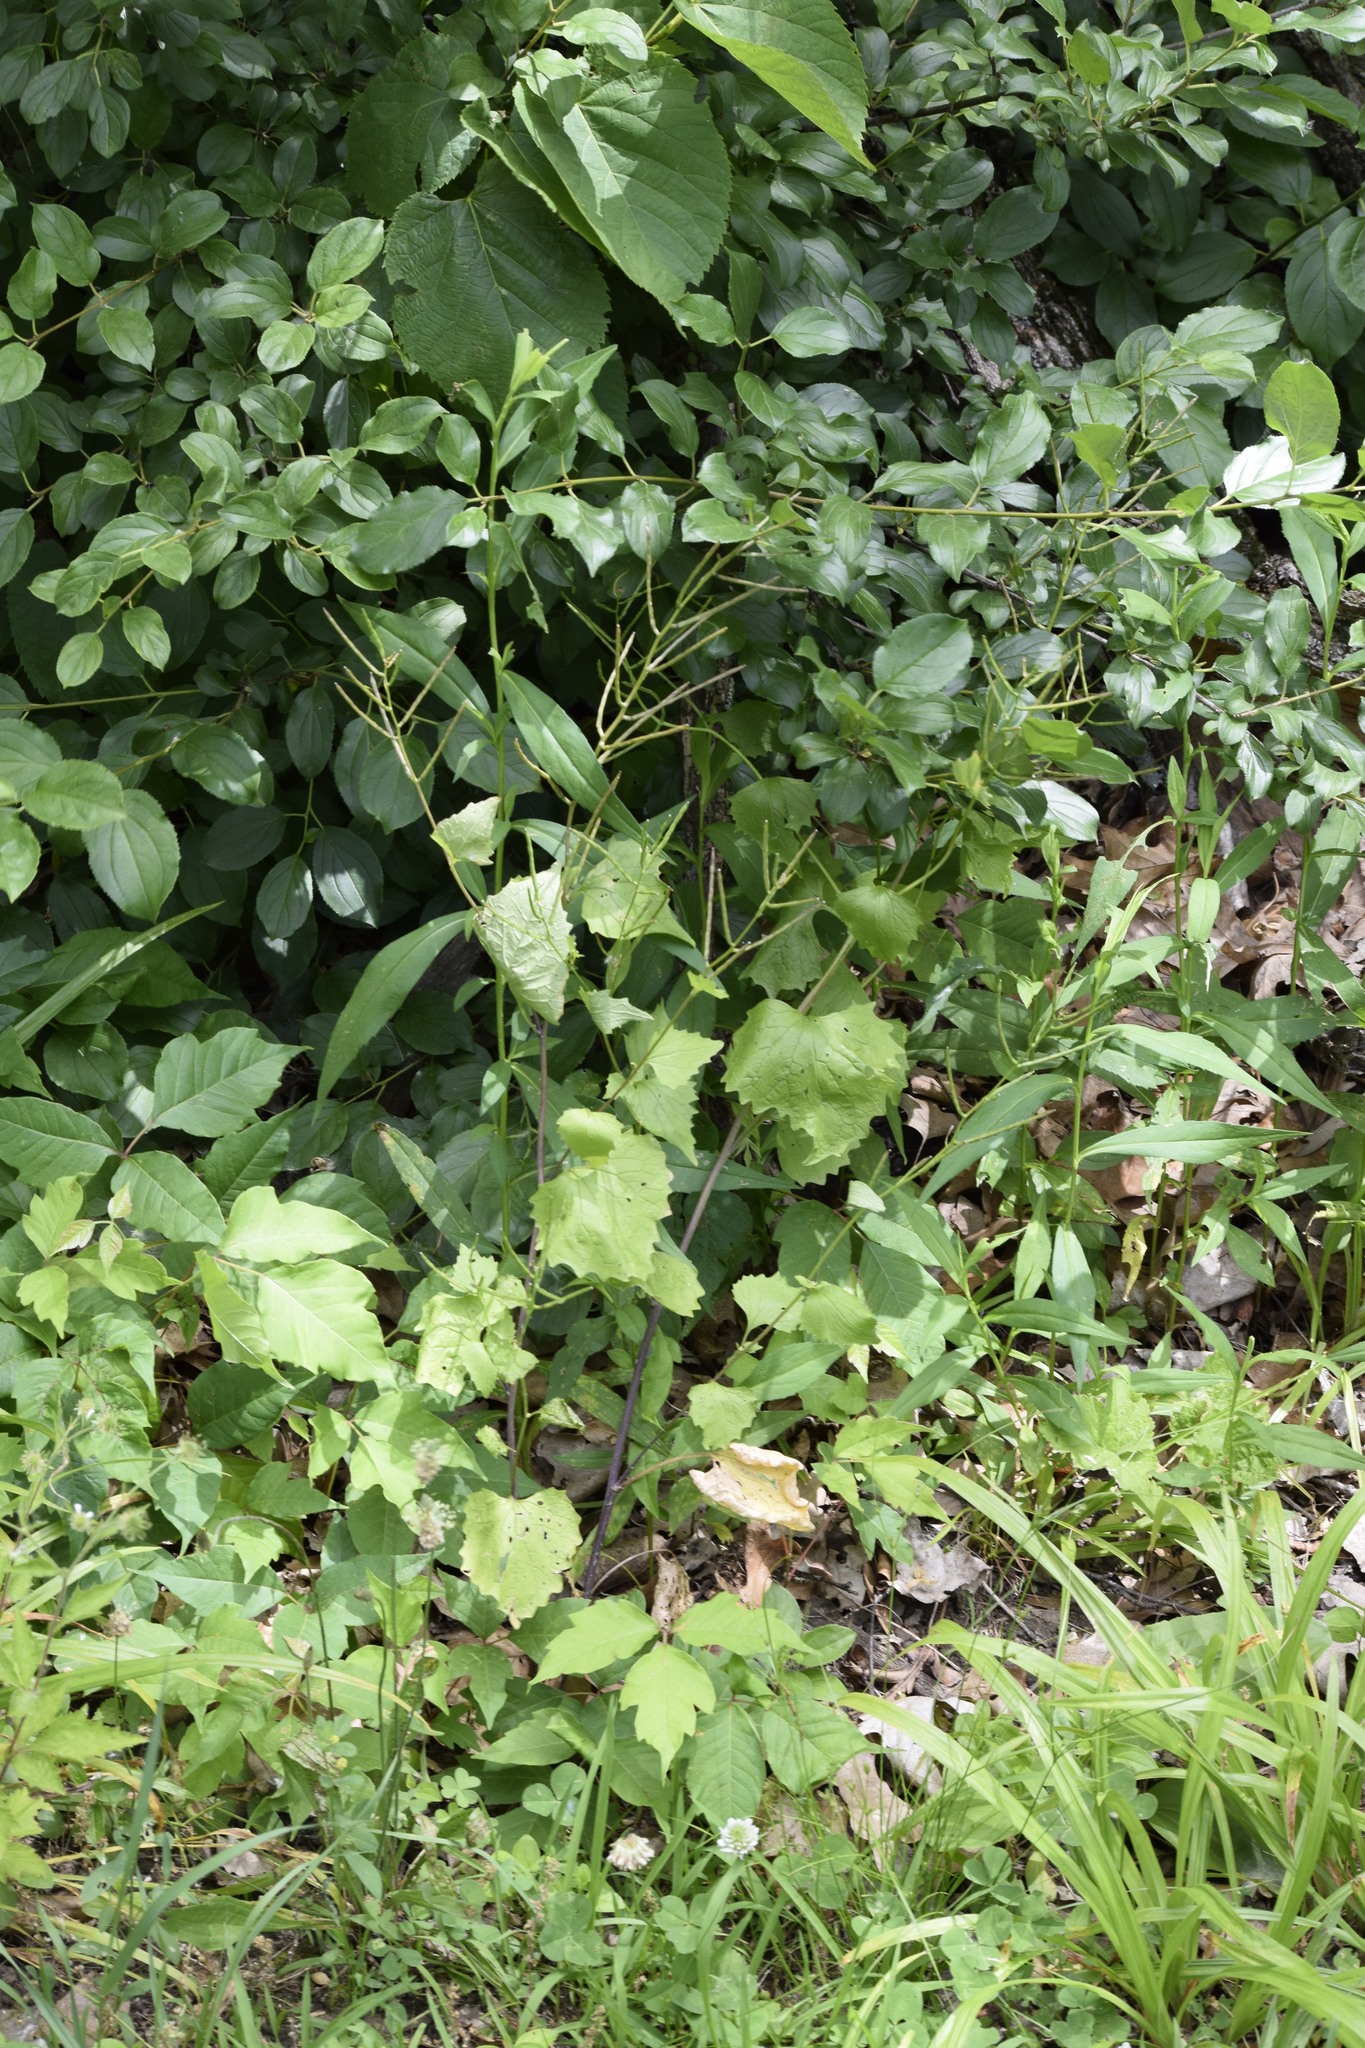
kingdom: Plantae
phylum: Tracheophyta
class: Magnoliopsida
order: Brassicales
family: Brassicaceae
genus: Alliaria
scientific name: Alliaria petiolata
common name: Garlic mustard
